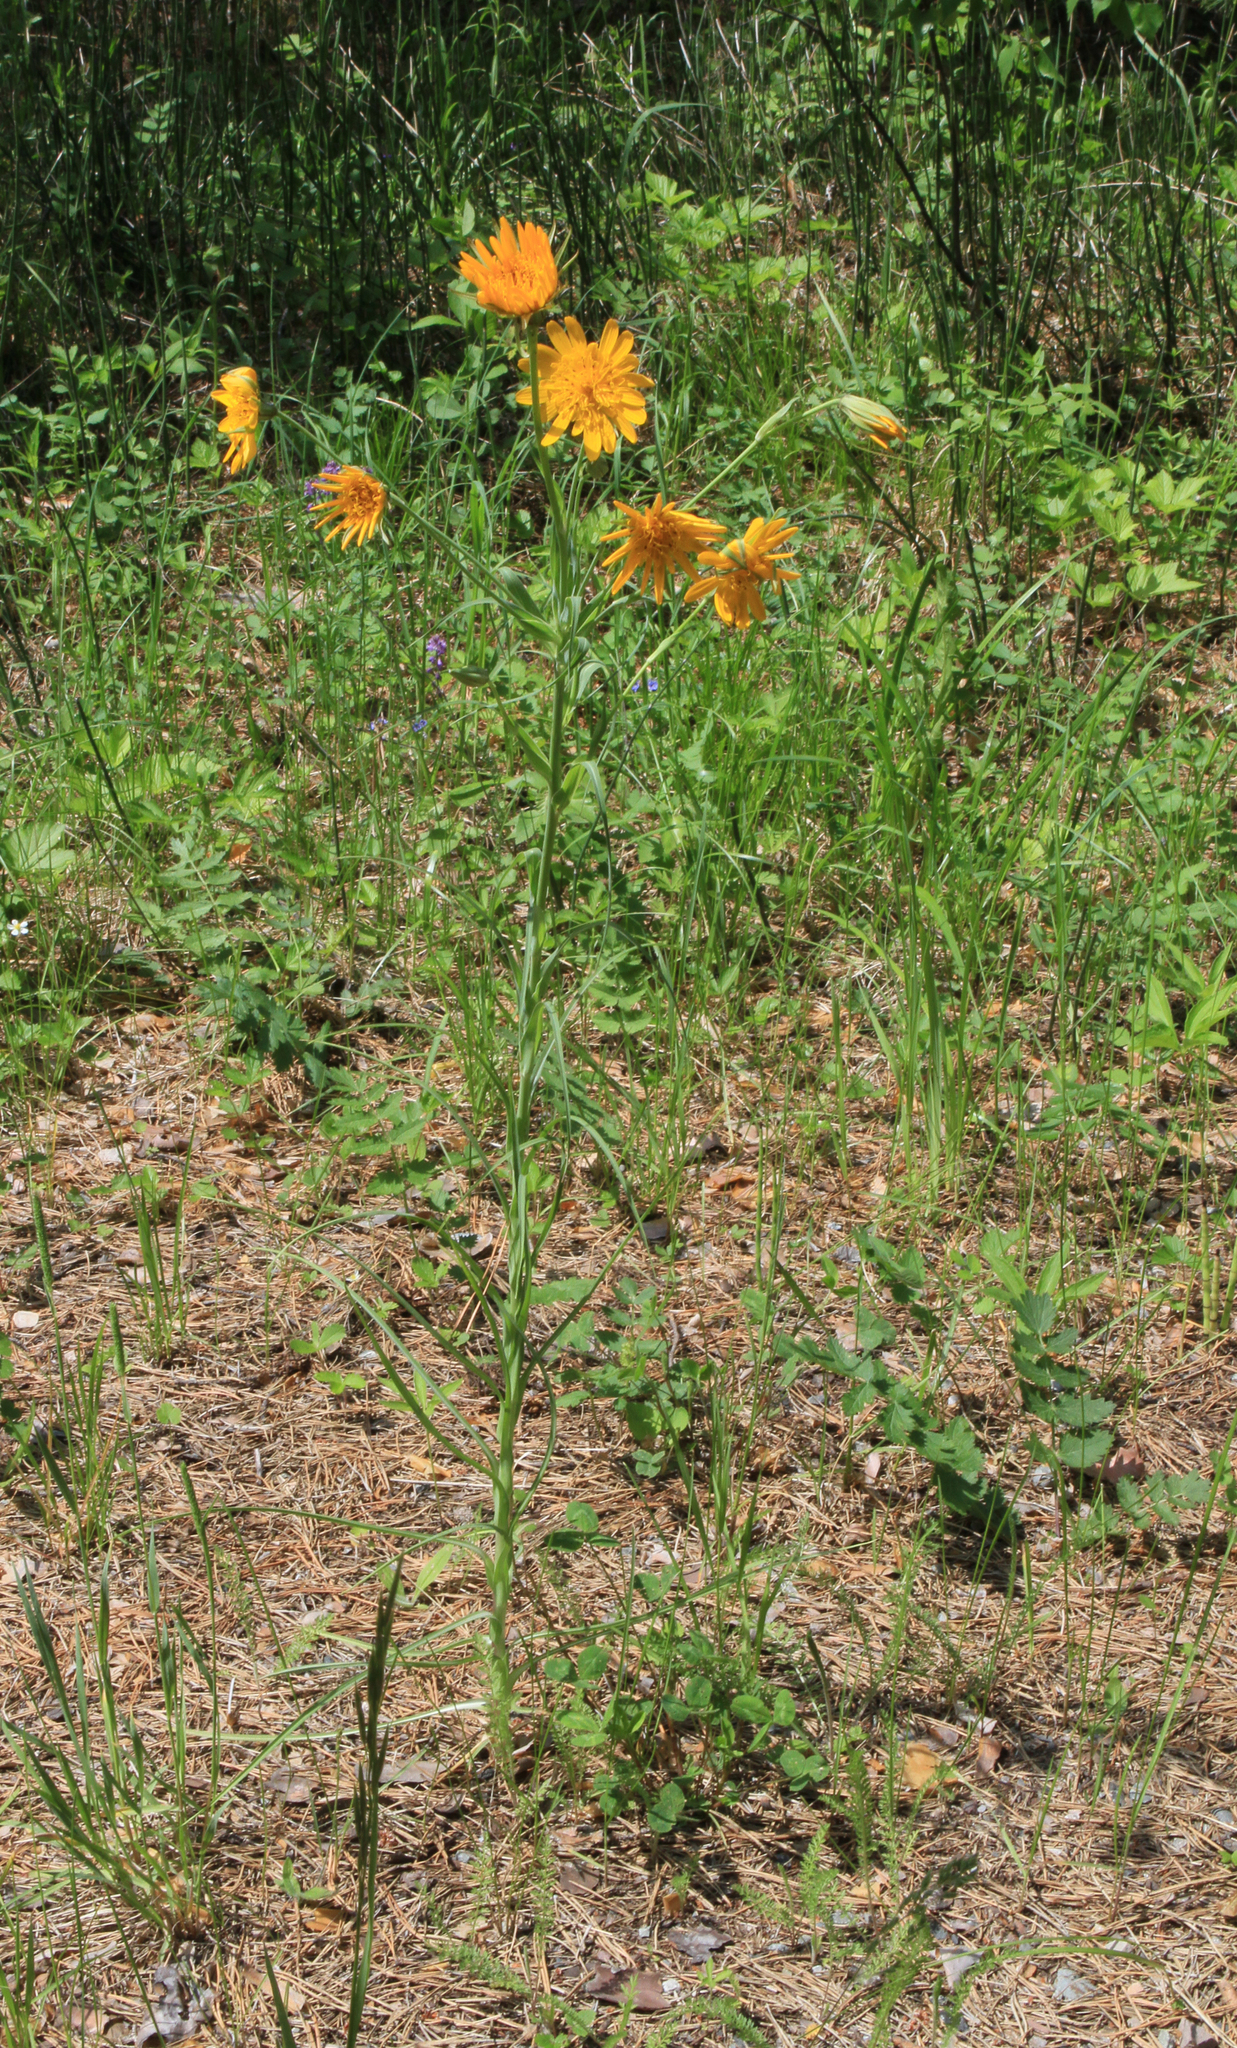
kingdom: Plantae
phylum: Tracheophyta
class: Magnoliopsida
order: Asterales
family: Asteraceae
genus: Tragopogon
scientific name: Tragopogon orientalis
